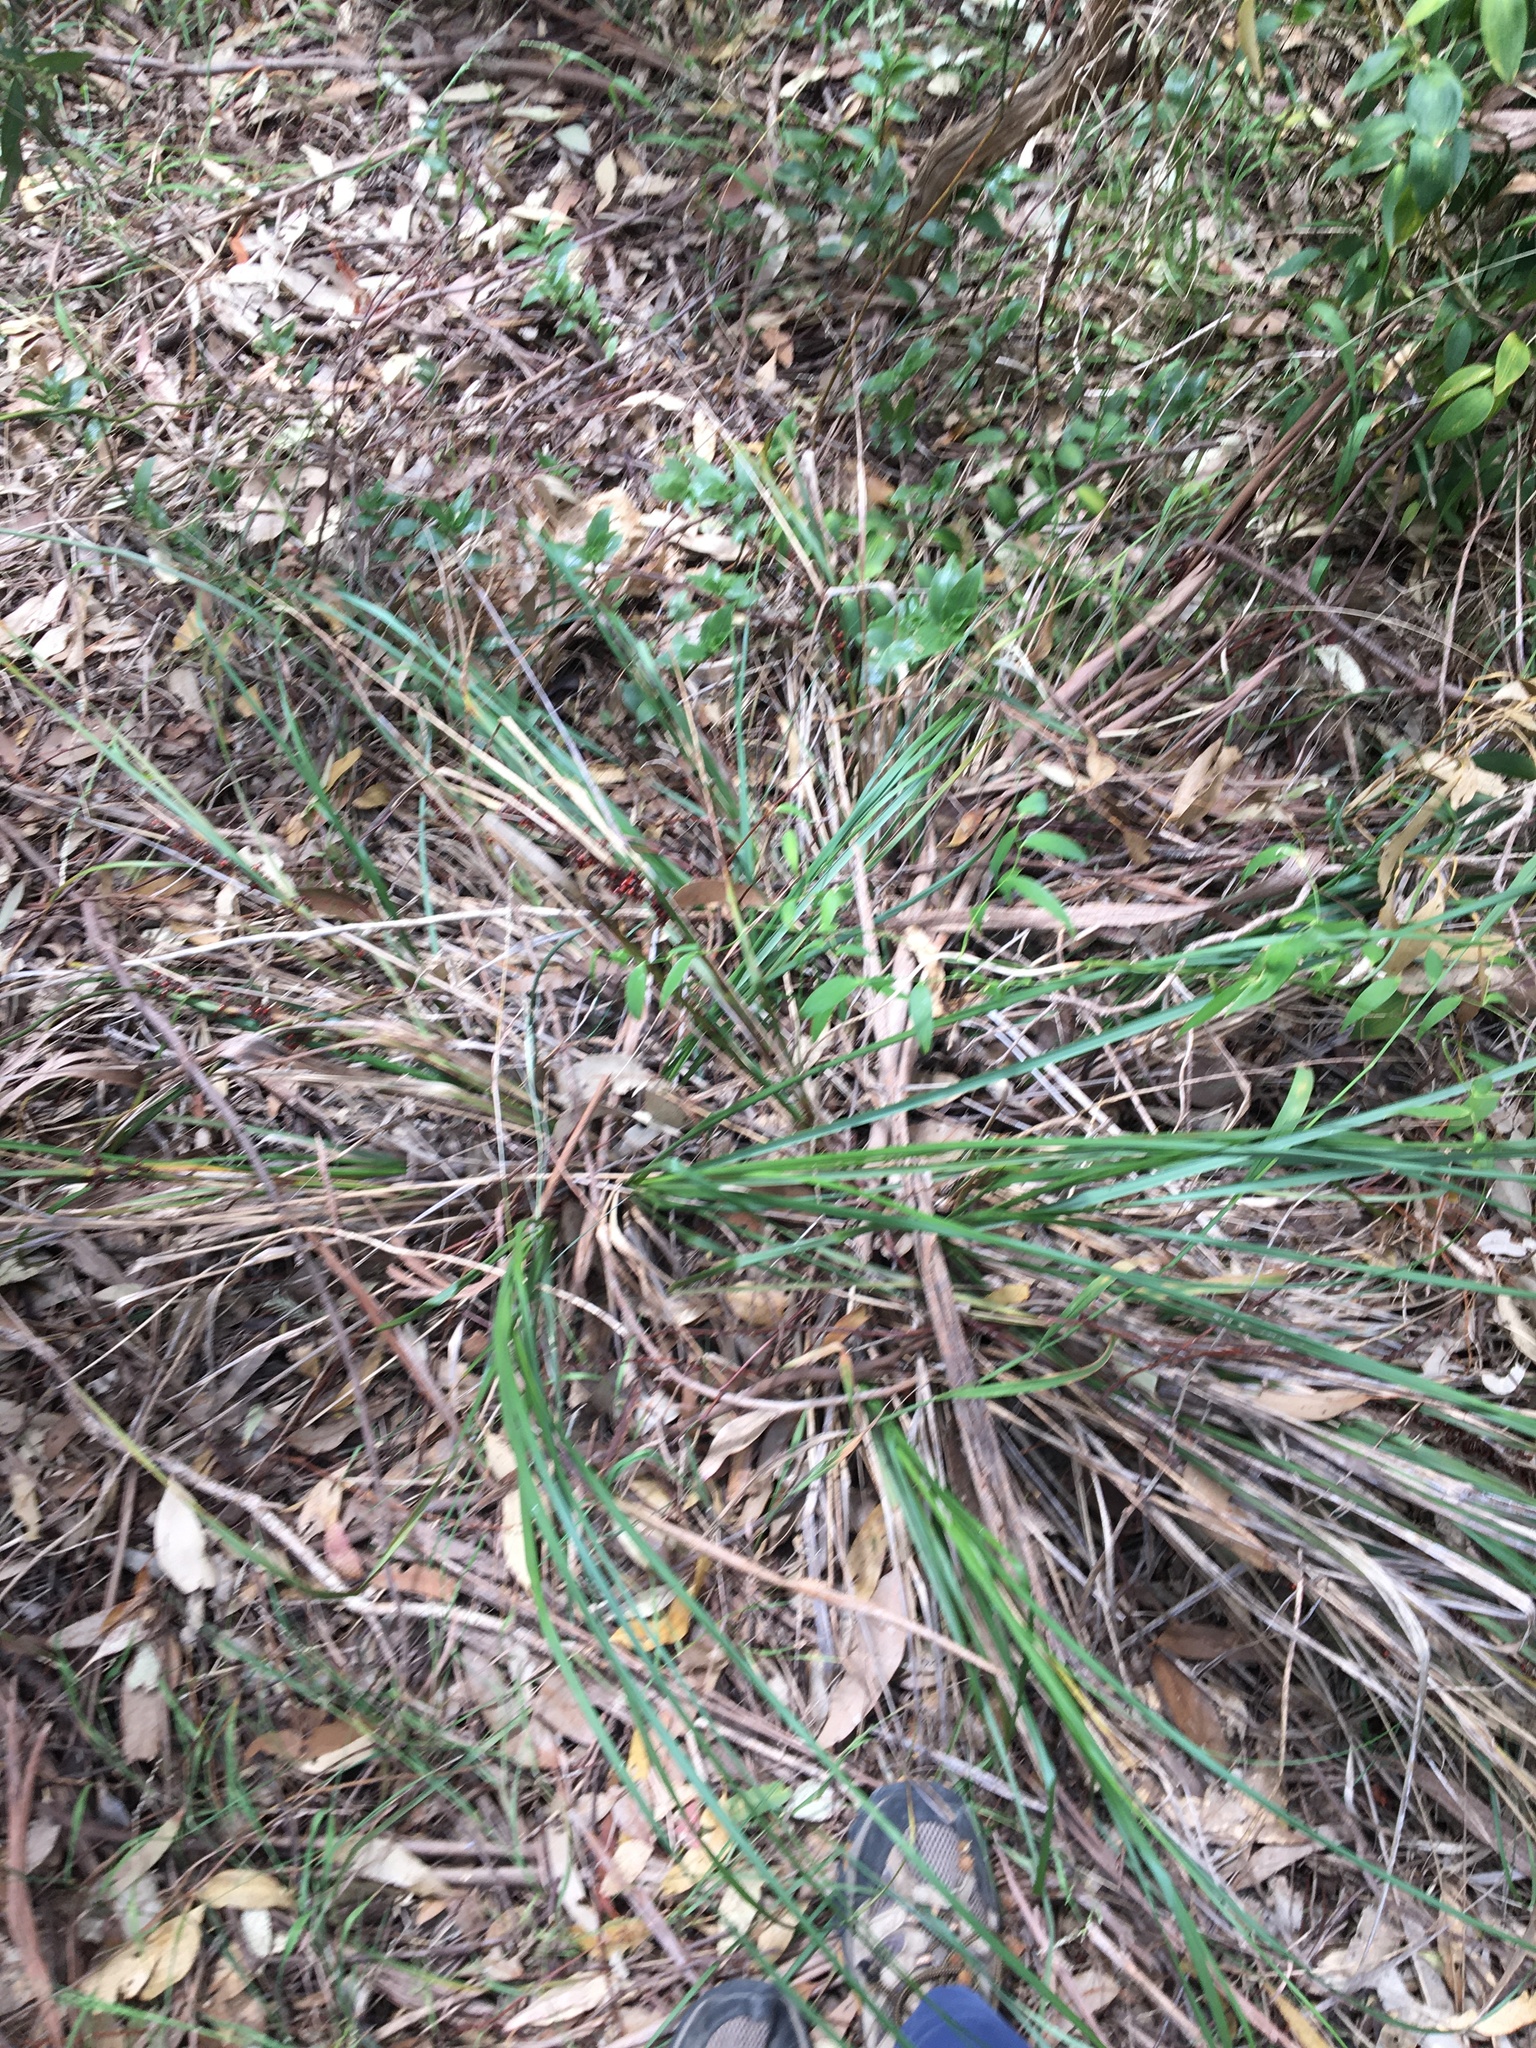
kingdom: Plantae
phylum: Tracheophyta
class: Liliopsida
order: Poales
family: Cyperaceae
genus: Gahnia
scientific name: Gahnia aspera
